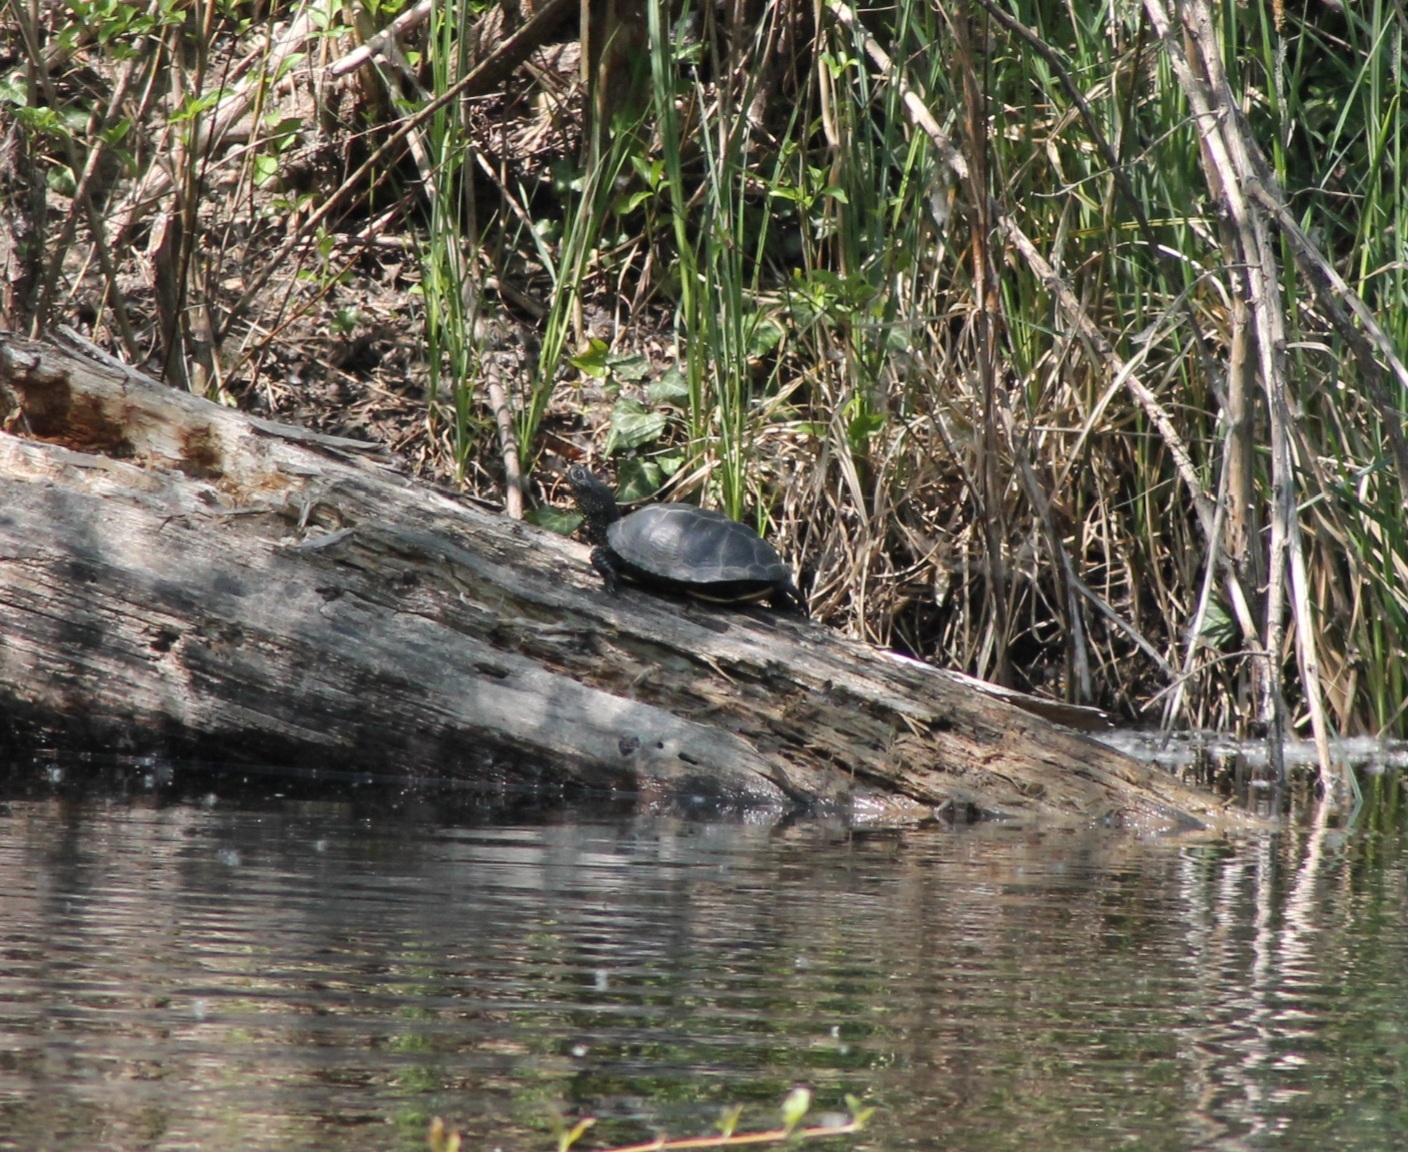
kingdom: Animalia
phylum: Chordata
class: Testudines
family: Emydidae
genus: Emys
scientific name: Emys orbicularis
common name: European pond turtle
